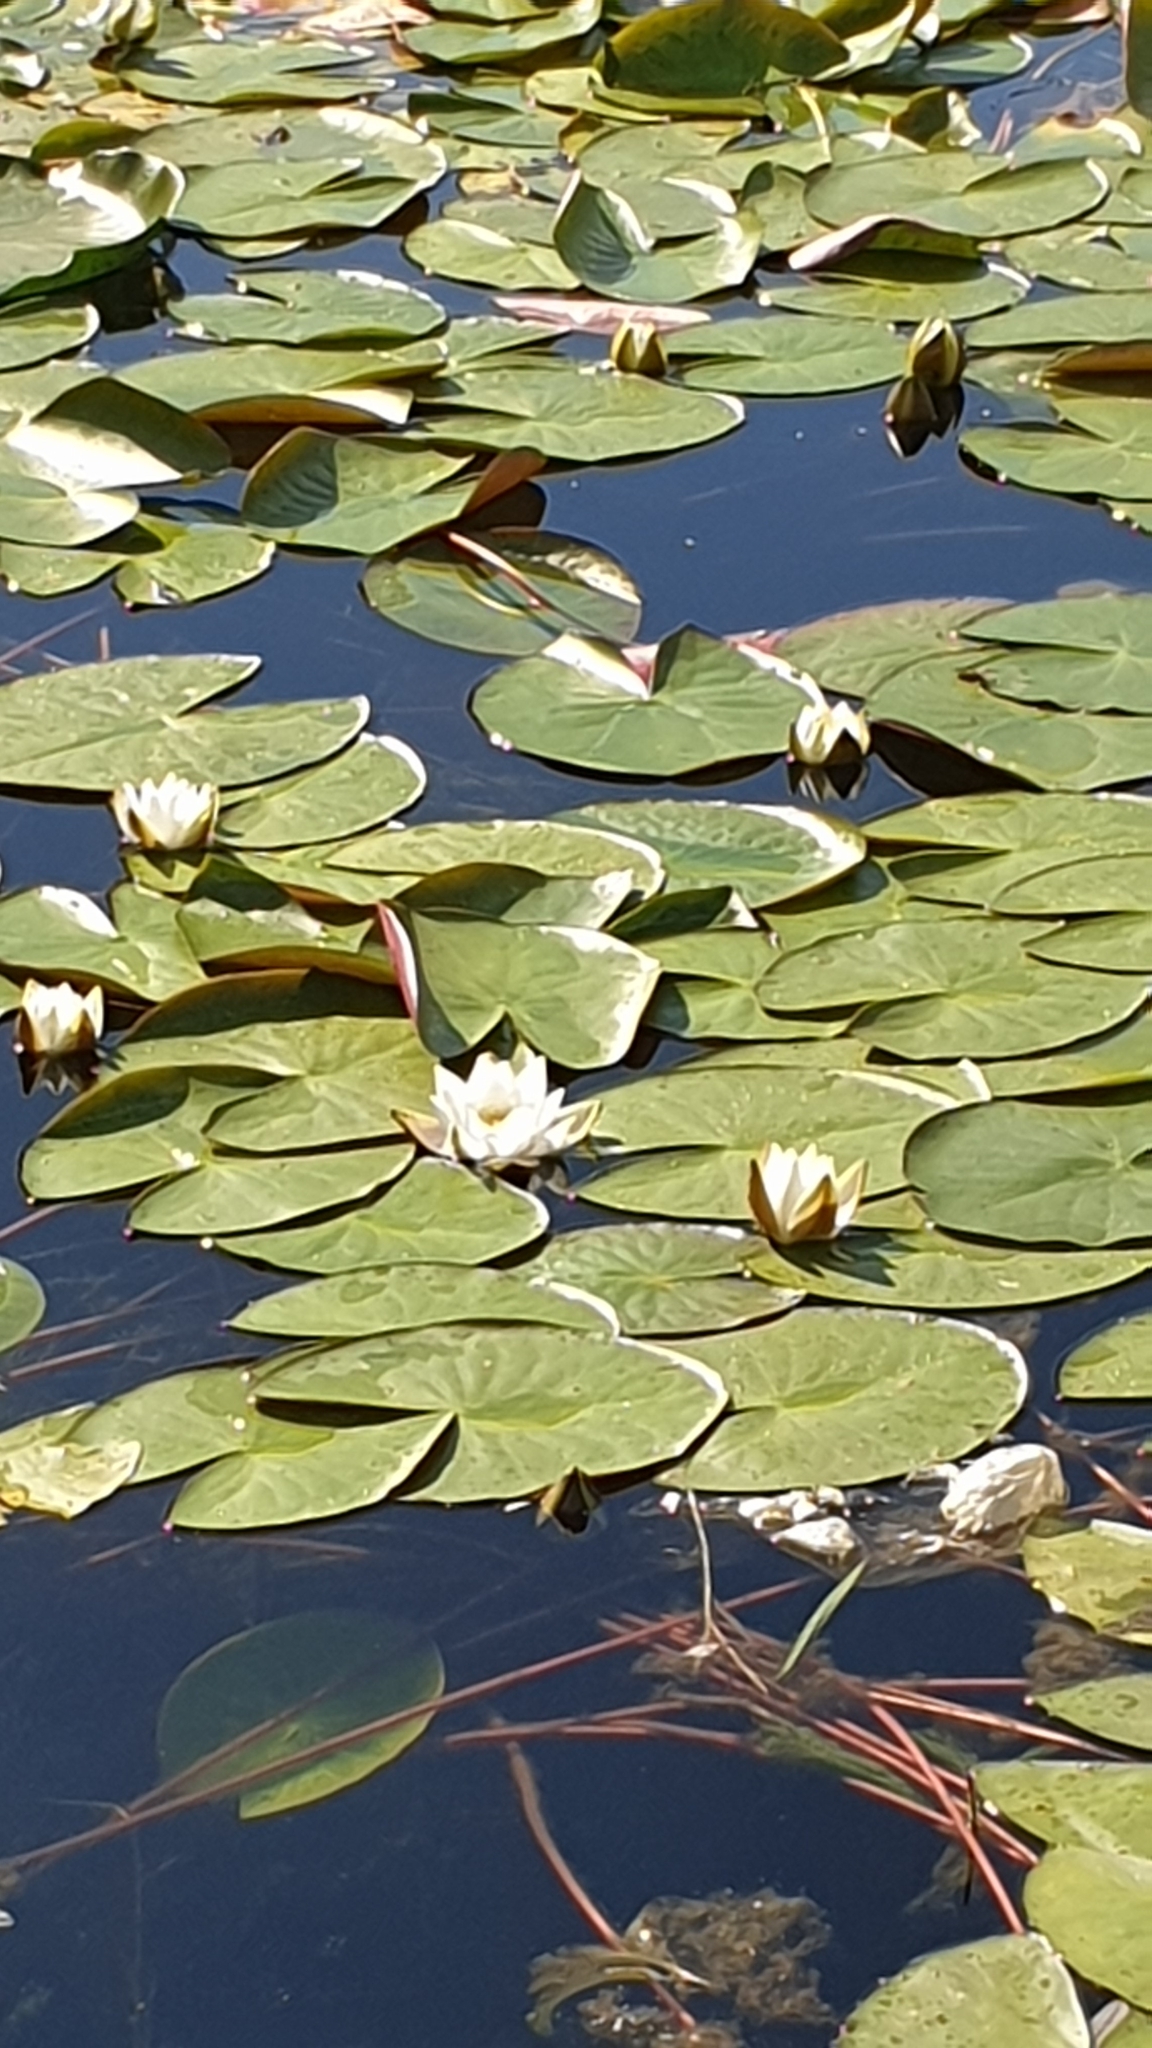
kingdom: Plantae
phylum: Tracheophyta
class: Magnoliopsida
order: Nymphaeales
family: Nymphaeaceae
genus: Nymphaea
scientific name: Nymphaea candida
